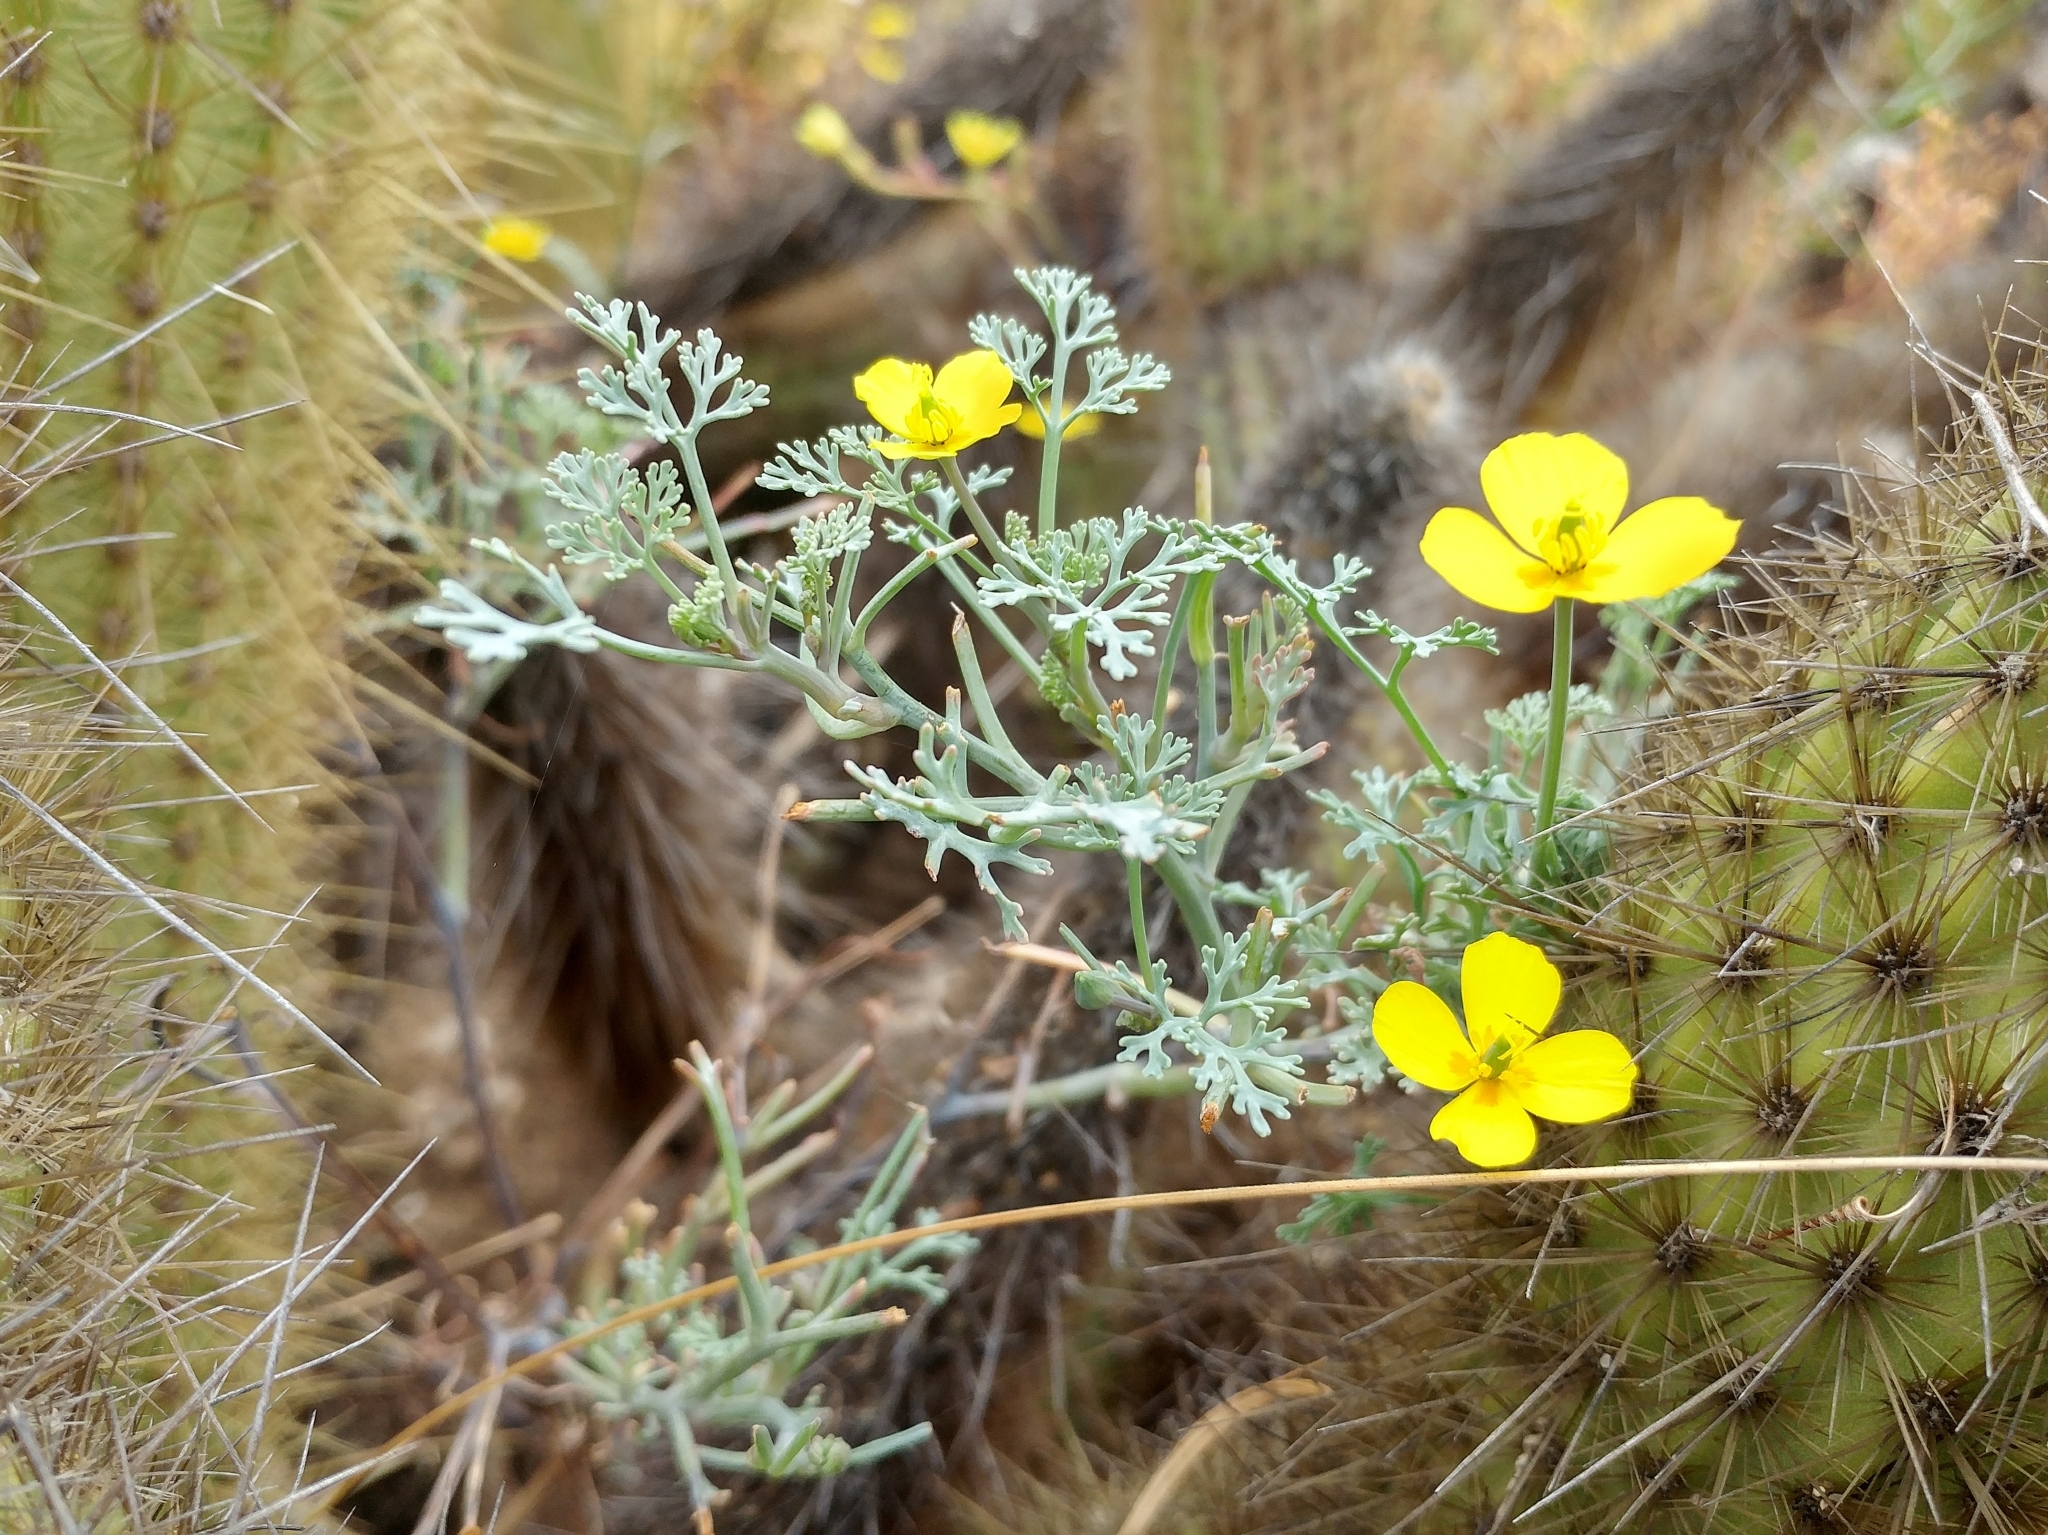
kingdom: Plantae
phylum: Tracheophyta
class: Magnoliopsida
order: Ranunculales
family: Papaveraceae
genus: Eschscholzia
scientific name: Eschscholzia ramosa
